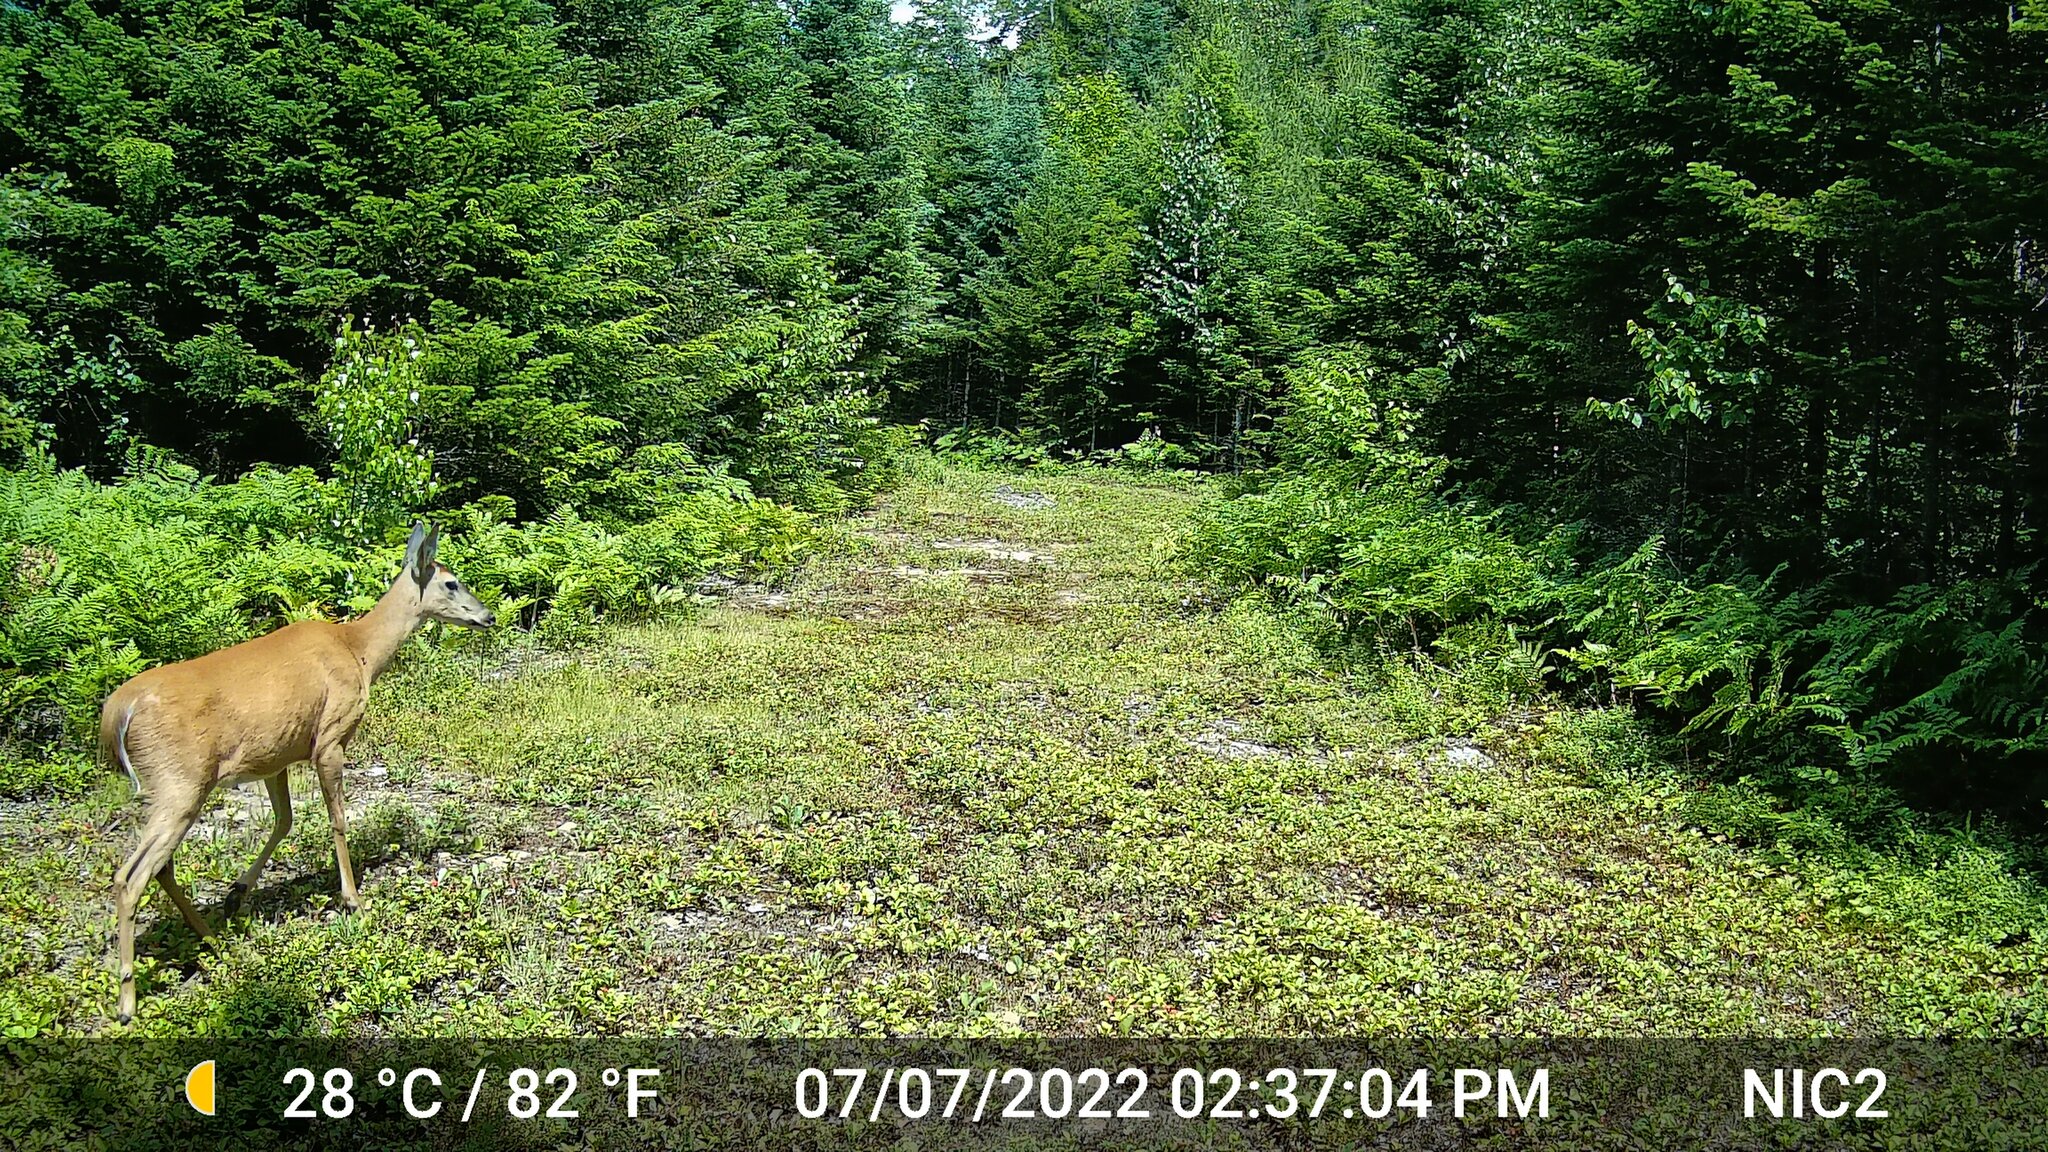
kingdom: Animalia
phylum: Chordata
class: Mammalia
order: Artiodactyla
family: Cervidae
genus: Odocoileus
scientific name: Odocoileus virginianus
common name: White-tailed deer
